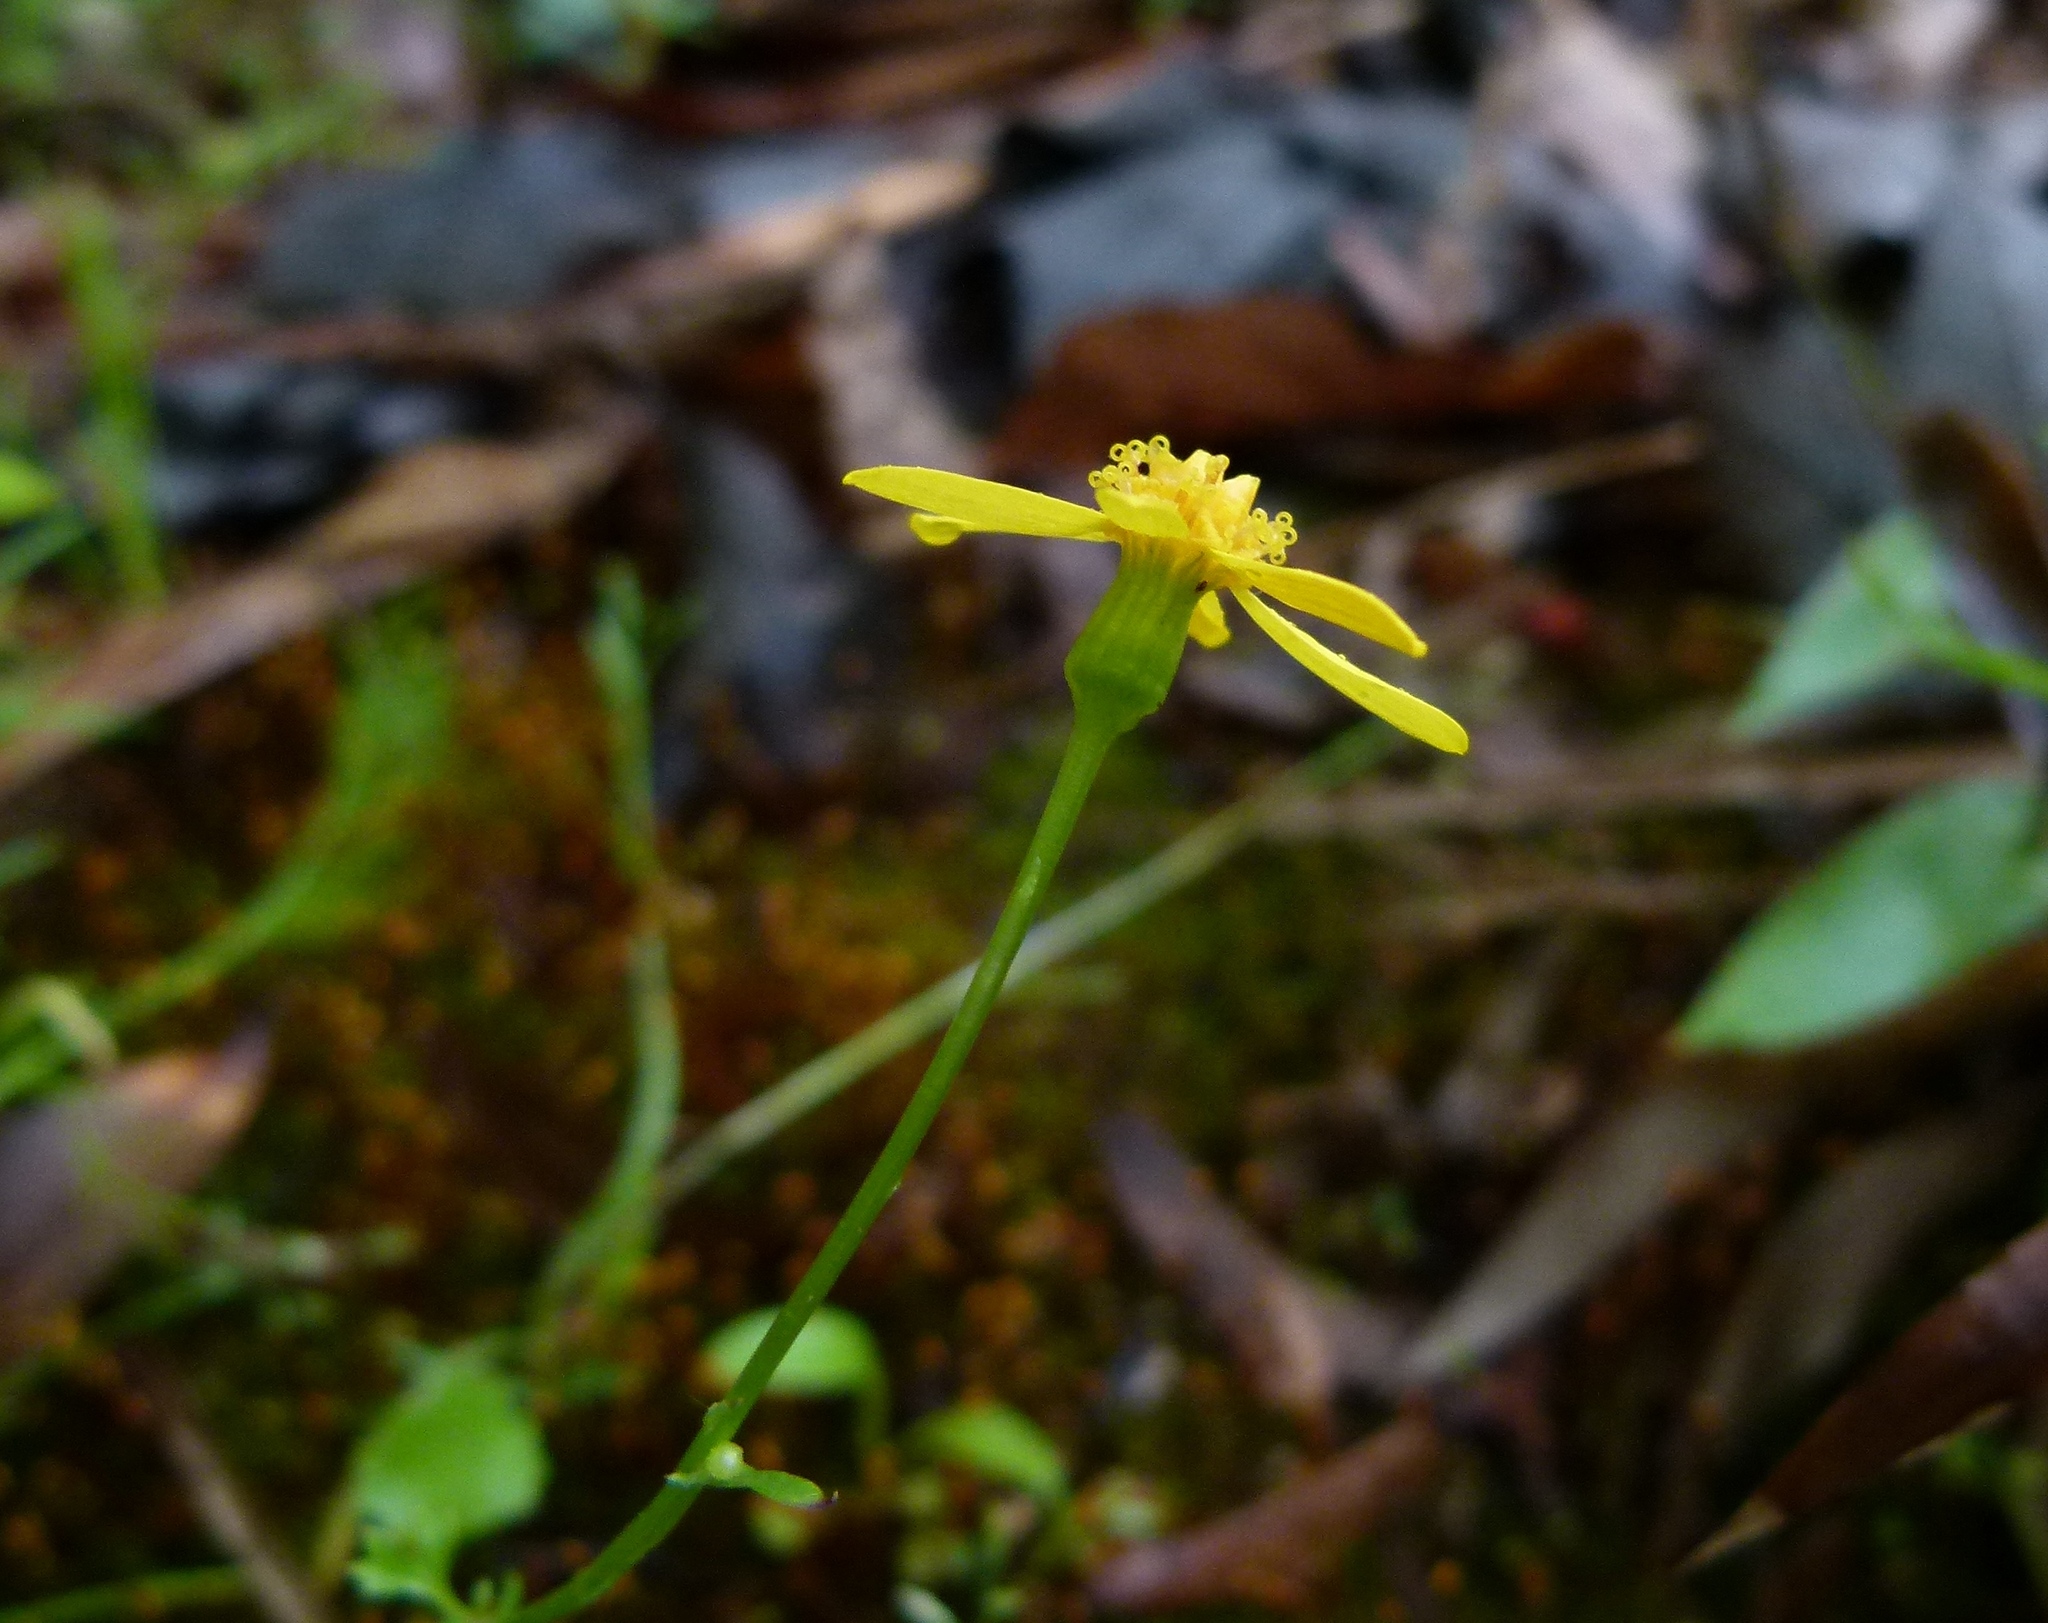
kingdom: Plantae
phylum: Tracheophyta
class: Magnoliopsida
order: Asterales
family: Asteraceae
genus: Packera
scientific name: Packera glabella
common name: Butterweed
